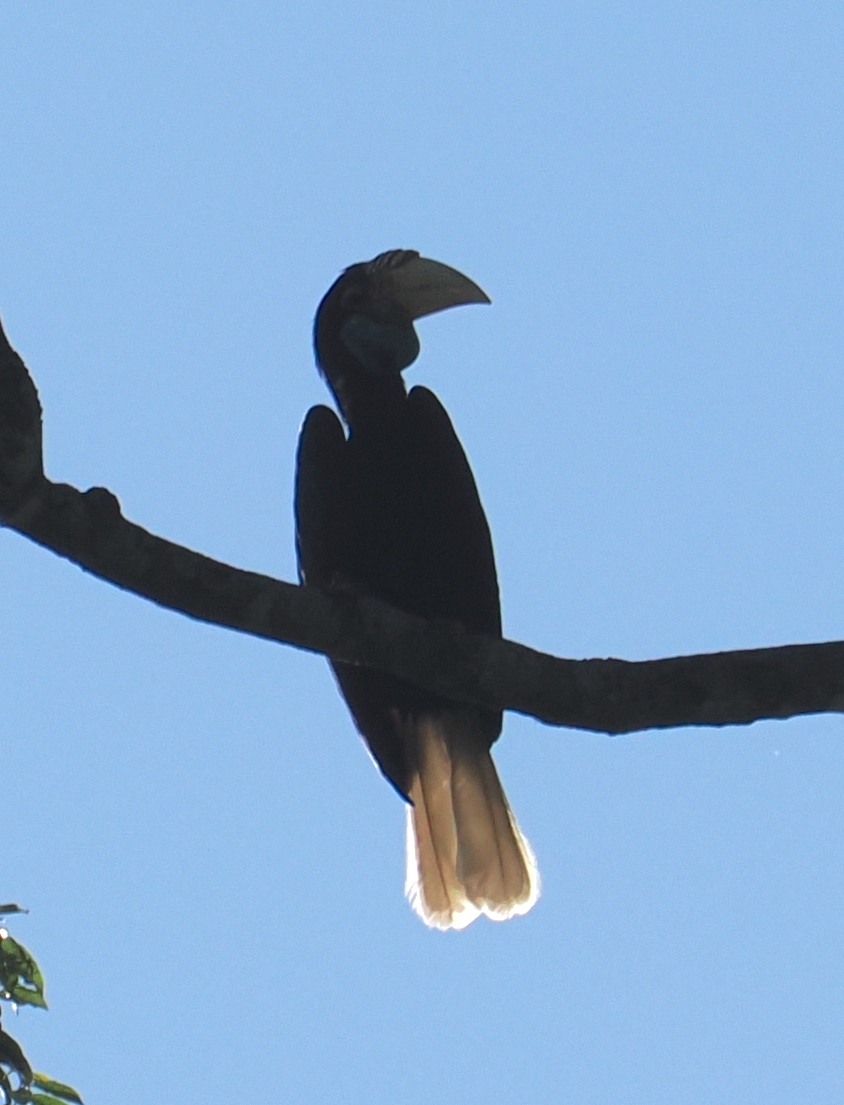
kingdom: Animalia
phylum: Chordata
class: Aves
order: Bucerotiformes
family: Bucerotidae
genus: Rhyticeros
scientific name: Rhyticeros undulatus
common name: Wreathed hornbill
